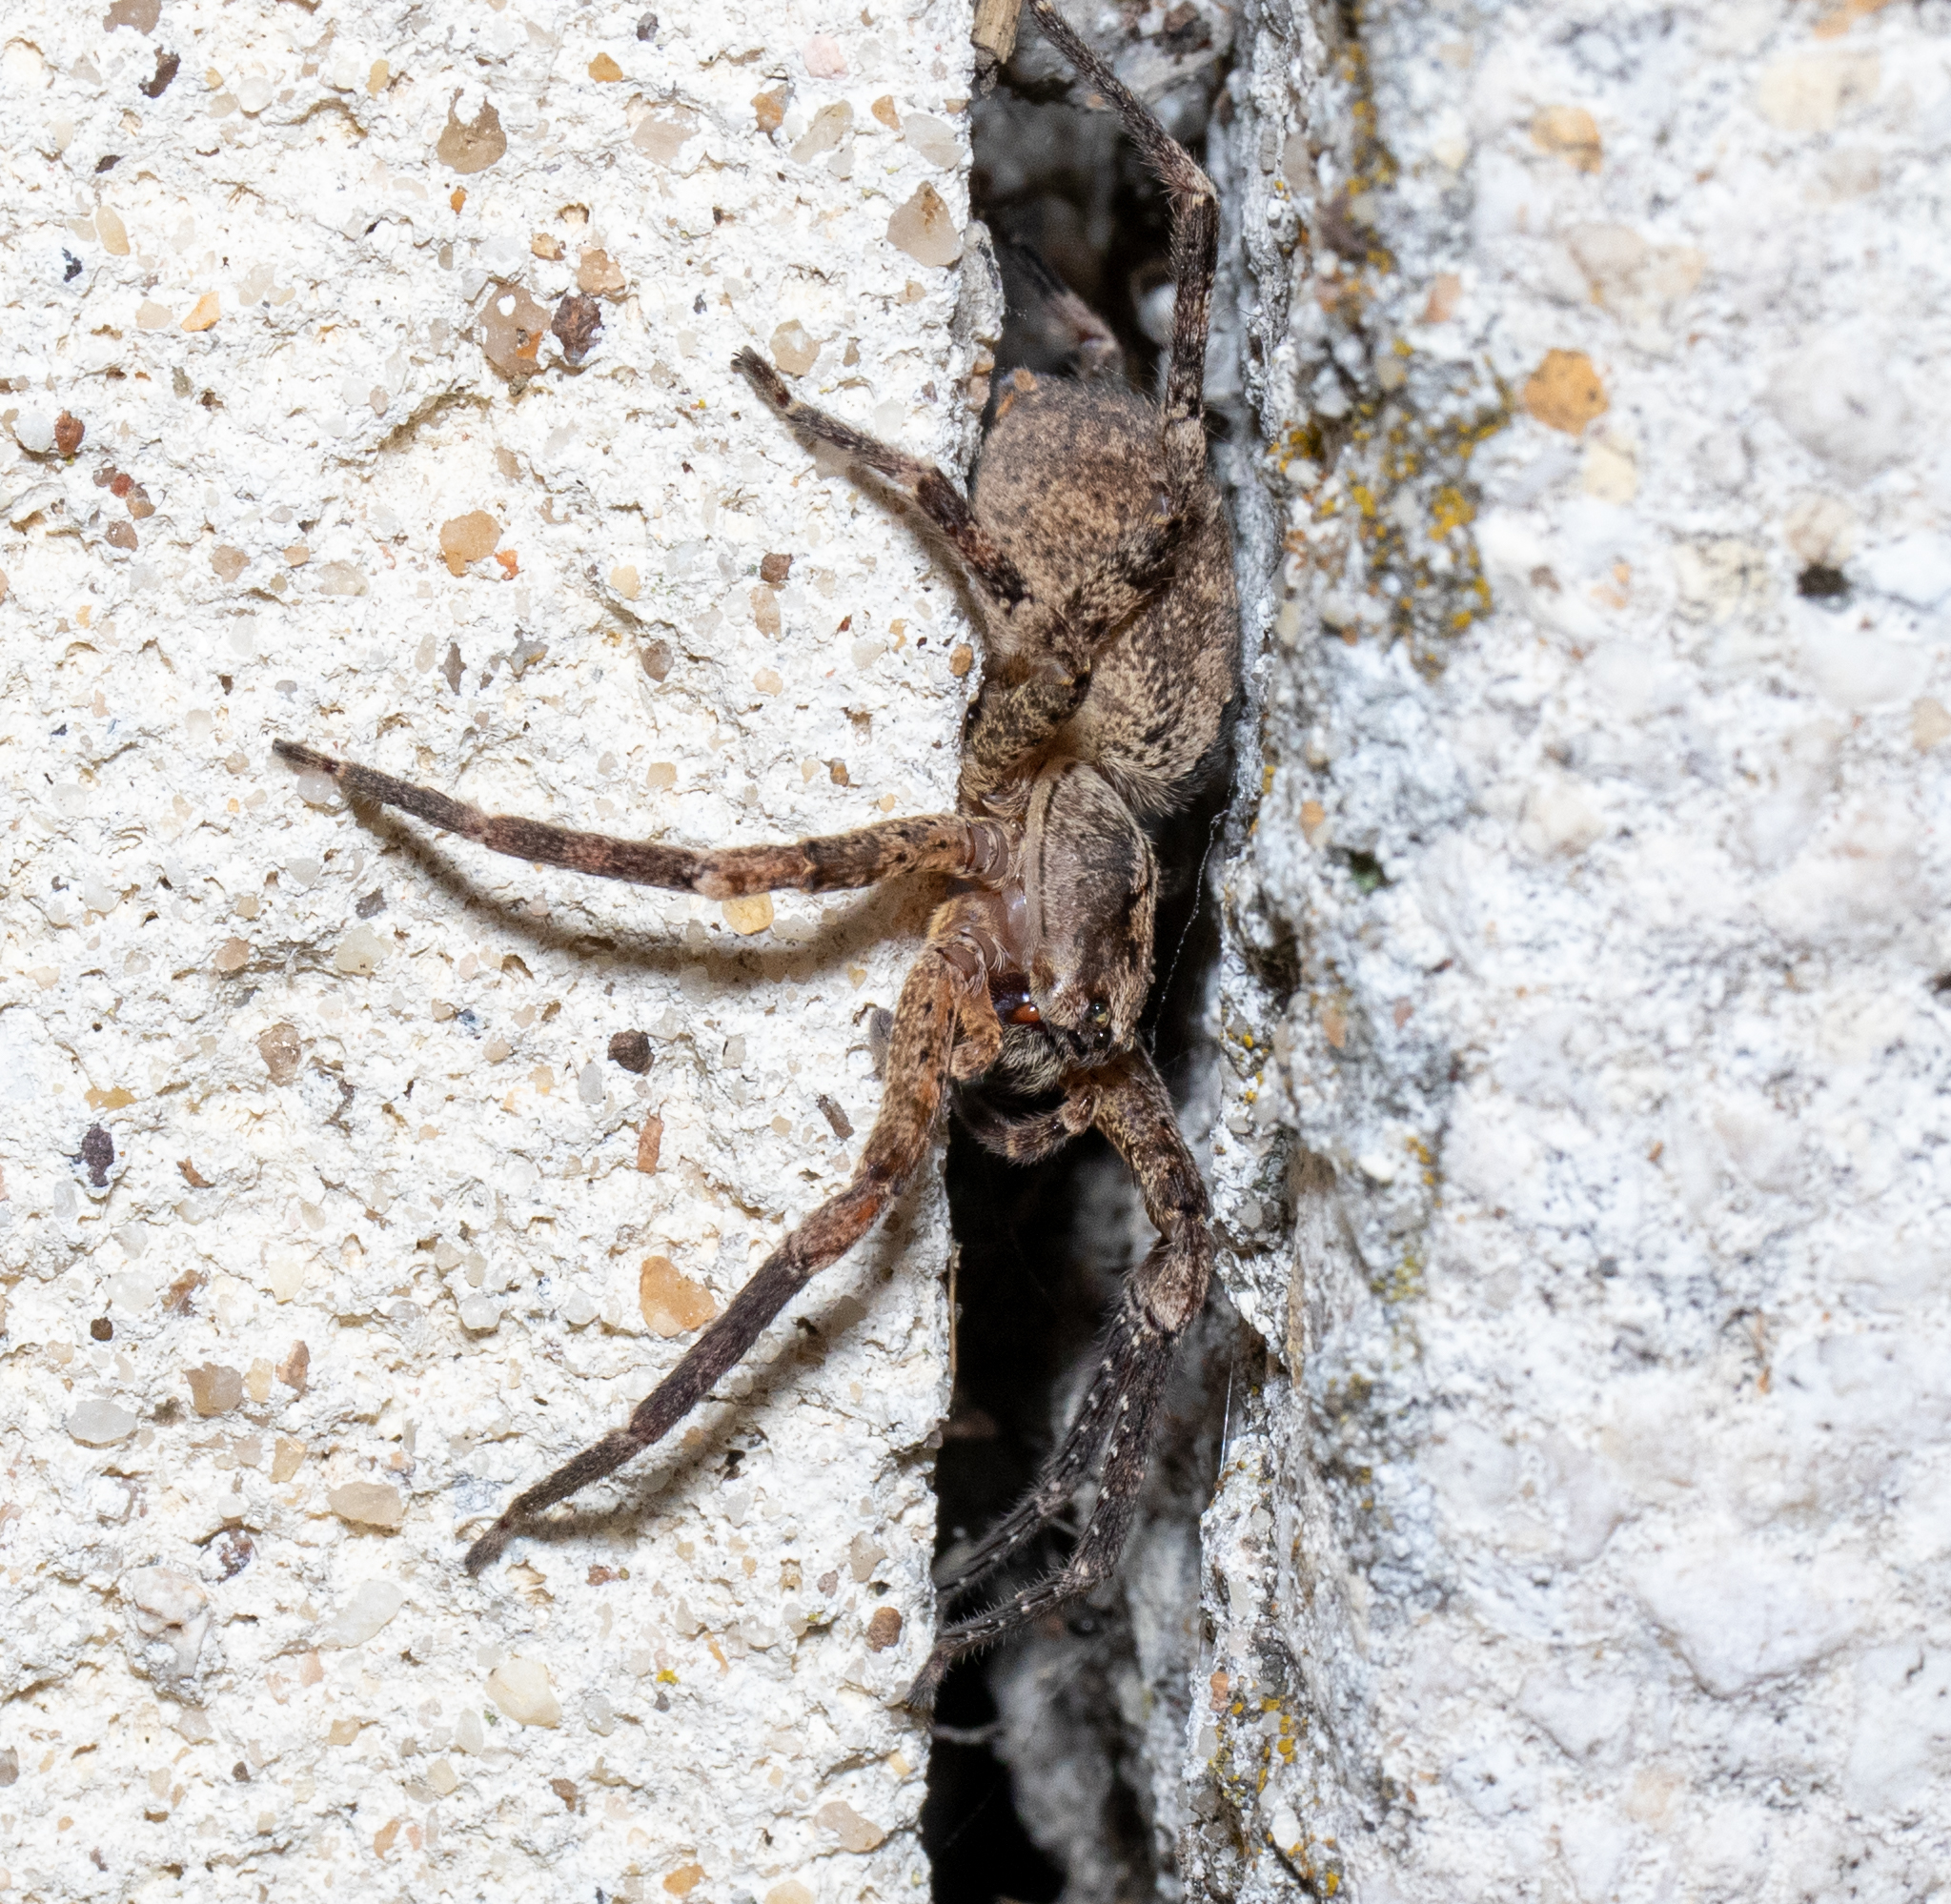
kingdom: Animalia
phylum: Arthropoda
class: Arachnida
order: Araneae
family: Zoropsidae
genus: Zoropsis
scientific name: Zoropsis spinimana
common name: Zoropsid spider
